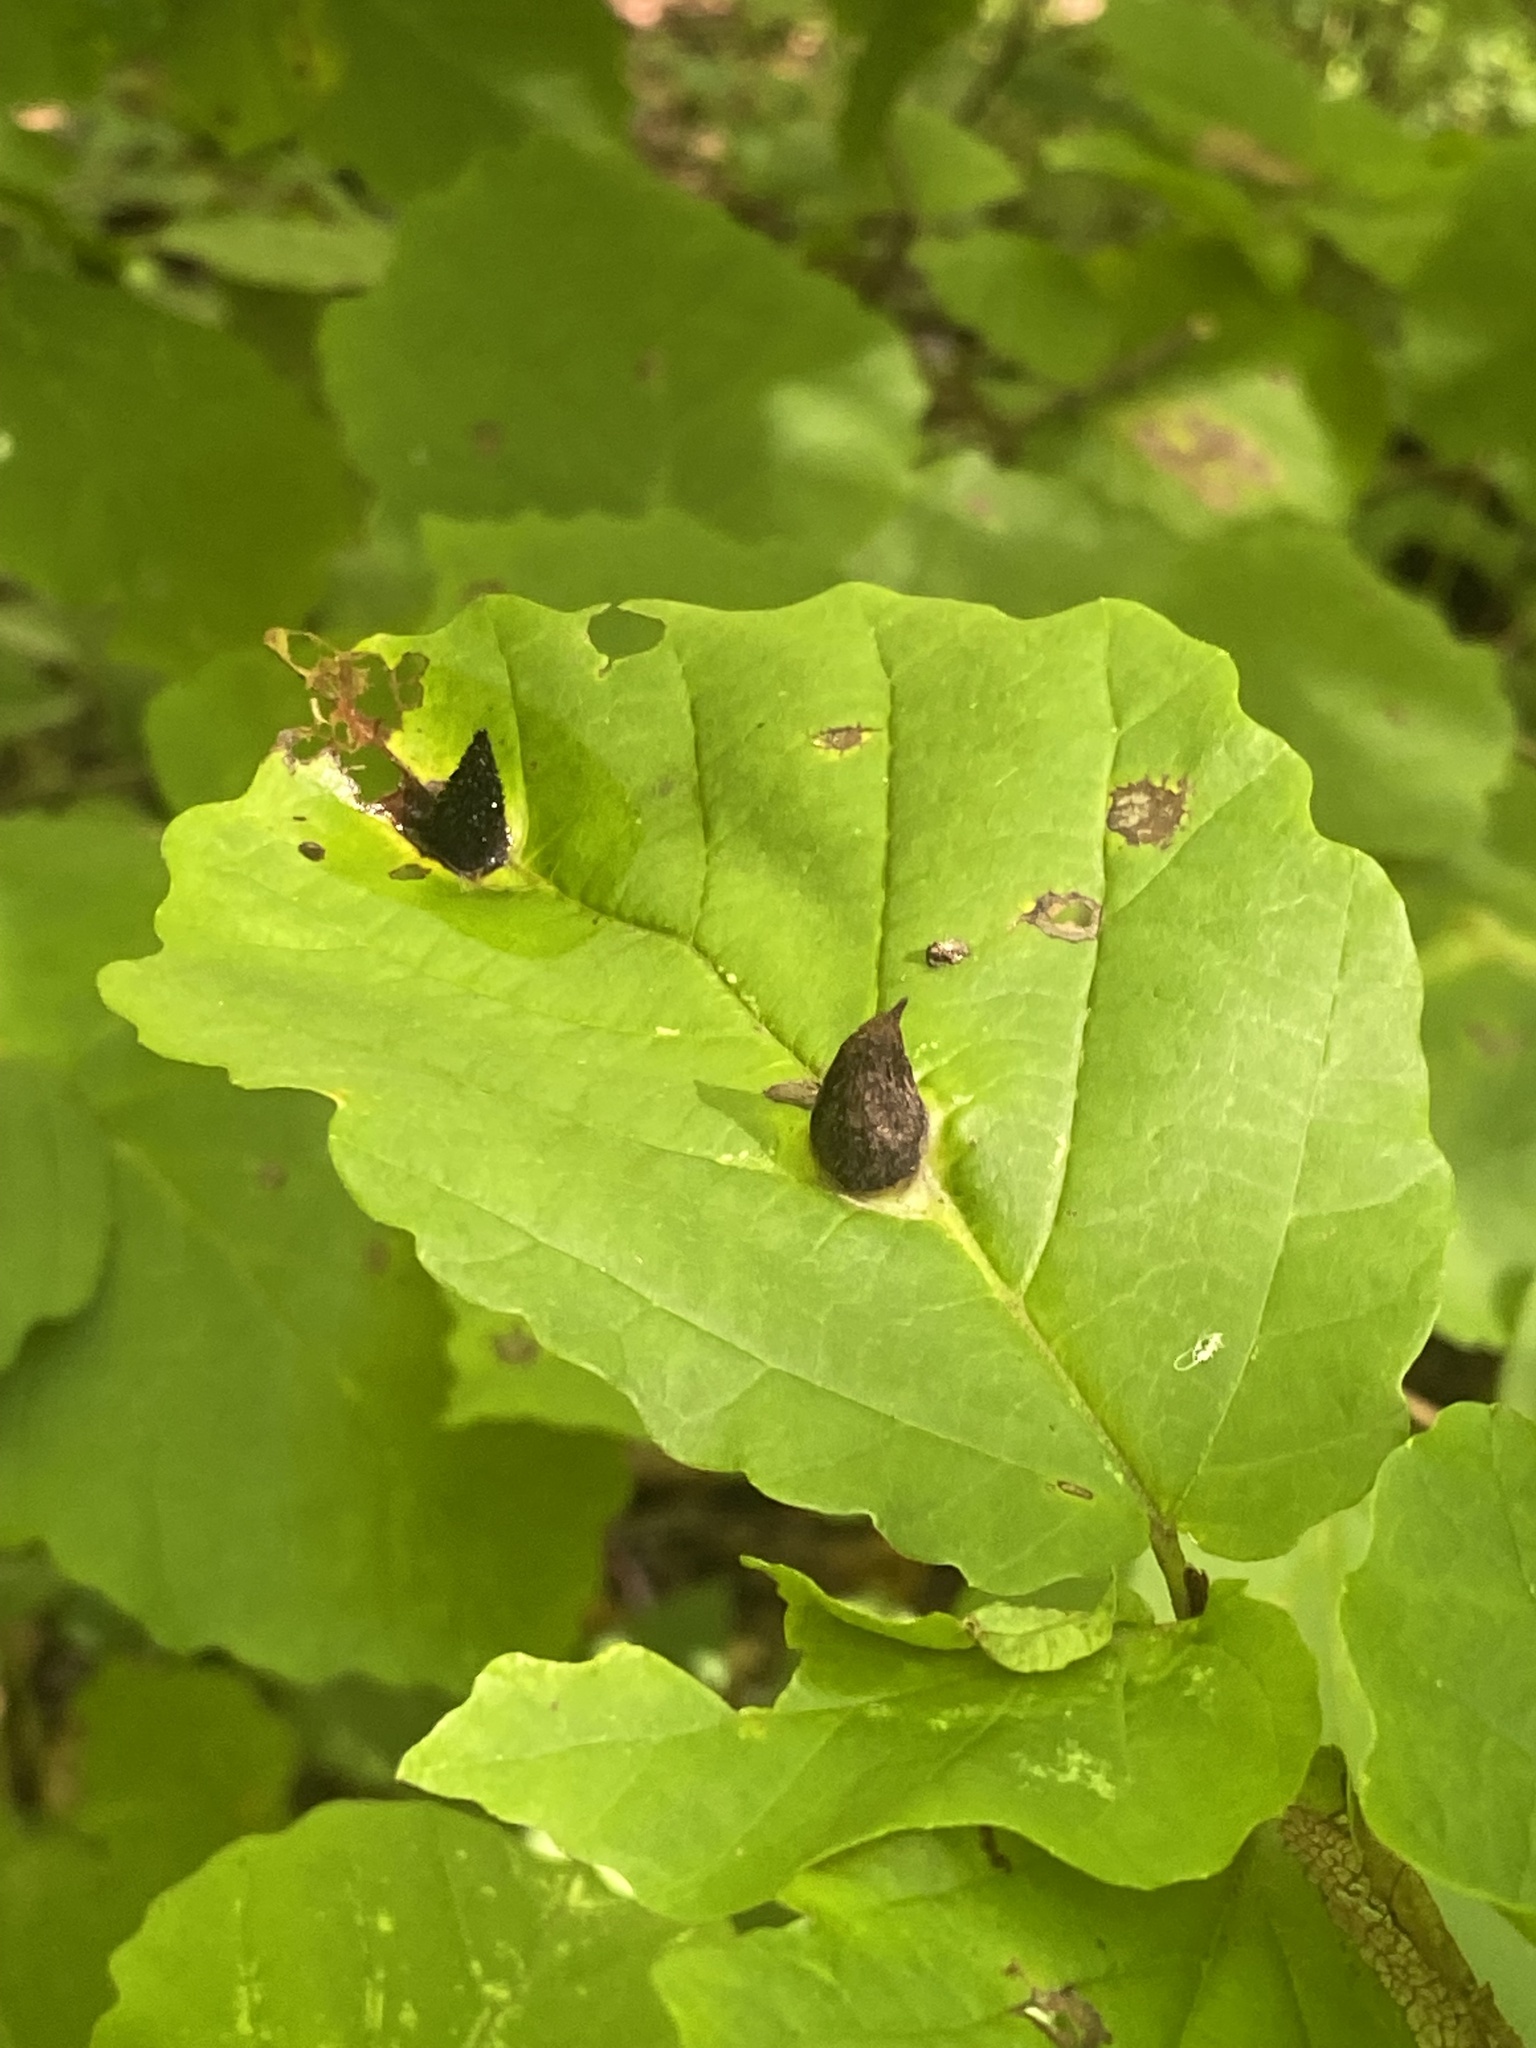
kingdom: Animalia
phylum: Arthropoda
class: Insecta
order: Hemiptera
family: Aphididae
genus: Hormaphis
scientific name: Hormaphis hamamelidis
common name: Witch-hazel cone gall aphid
